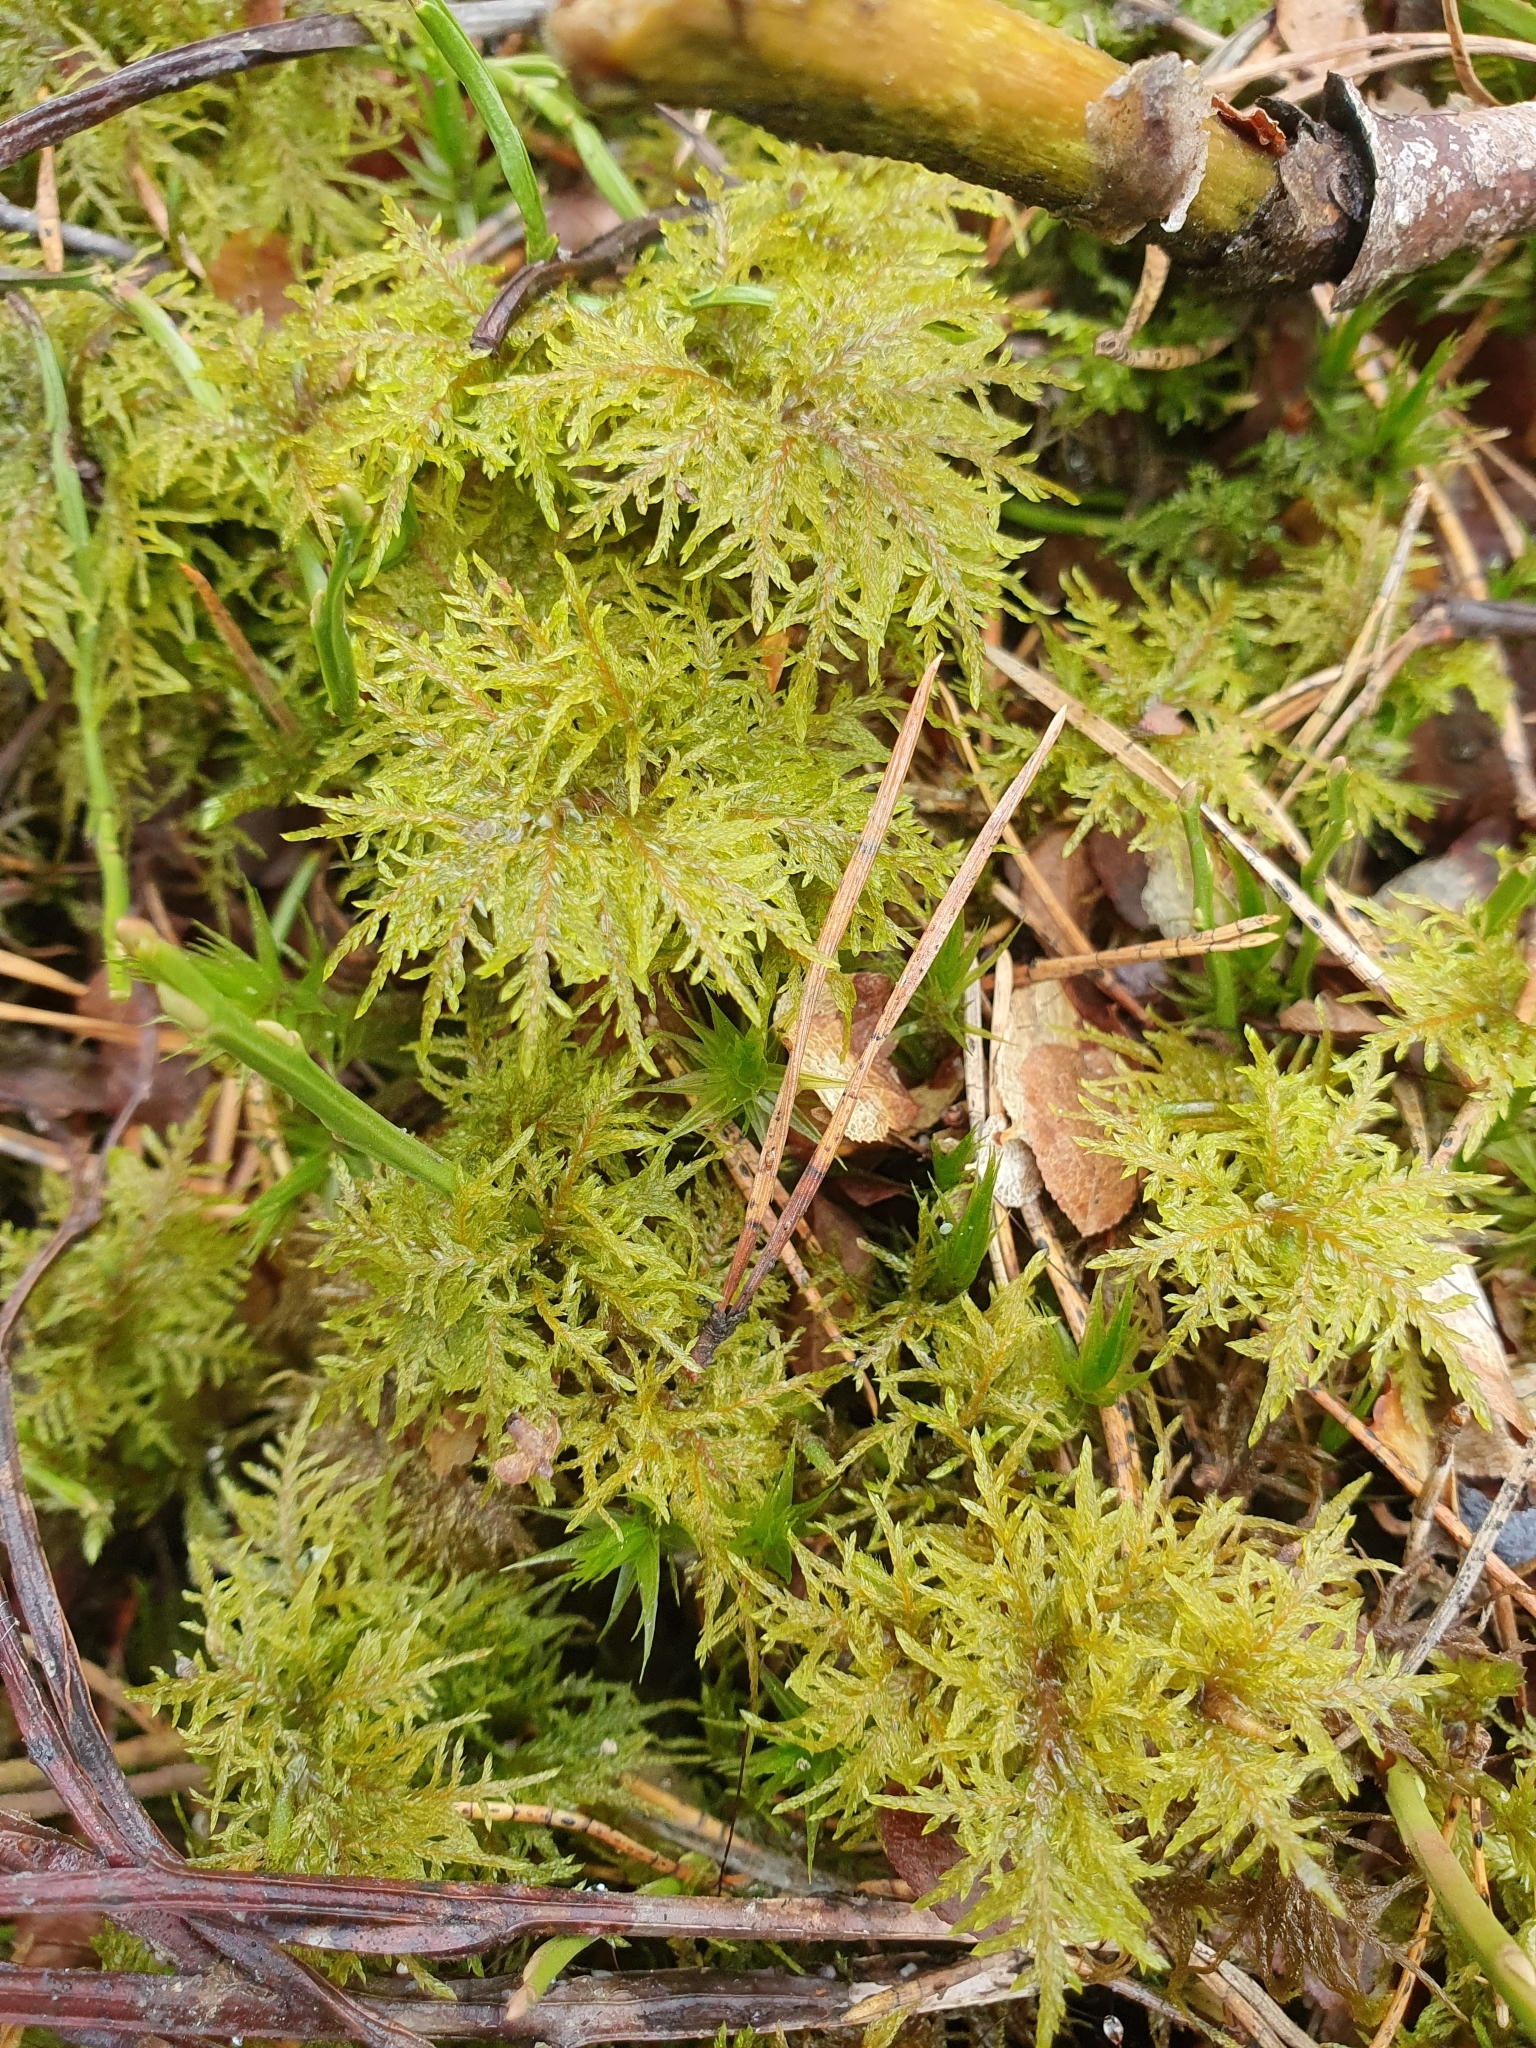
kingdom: Plantae
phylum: Bryophyta
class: Bryopsida
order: Hypnales
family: Hylocomiaceae
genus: Hylocomium
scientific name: Hylocomium splendens
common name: Stairstep moss
